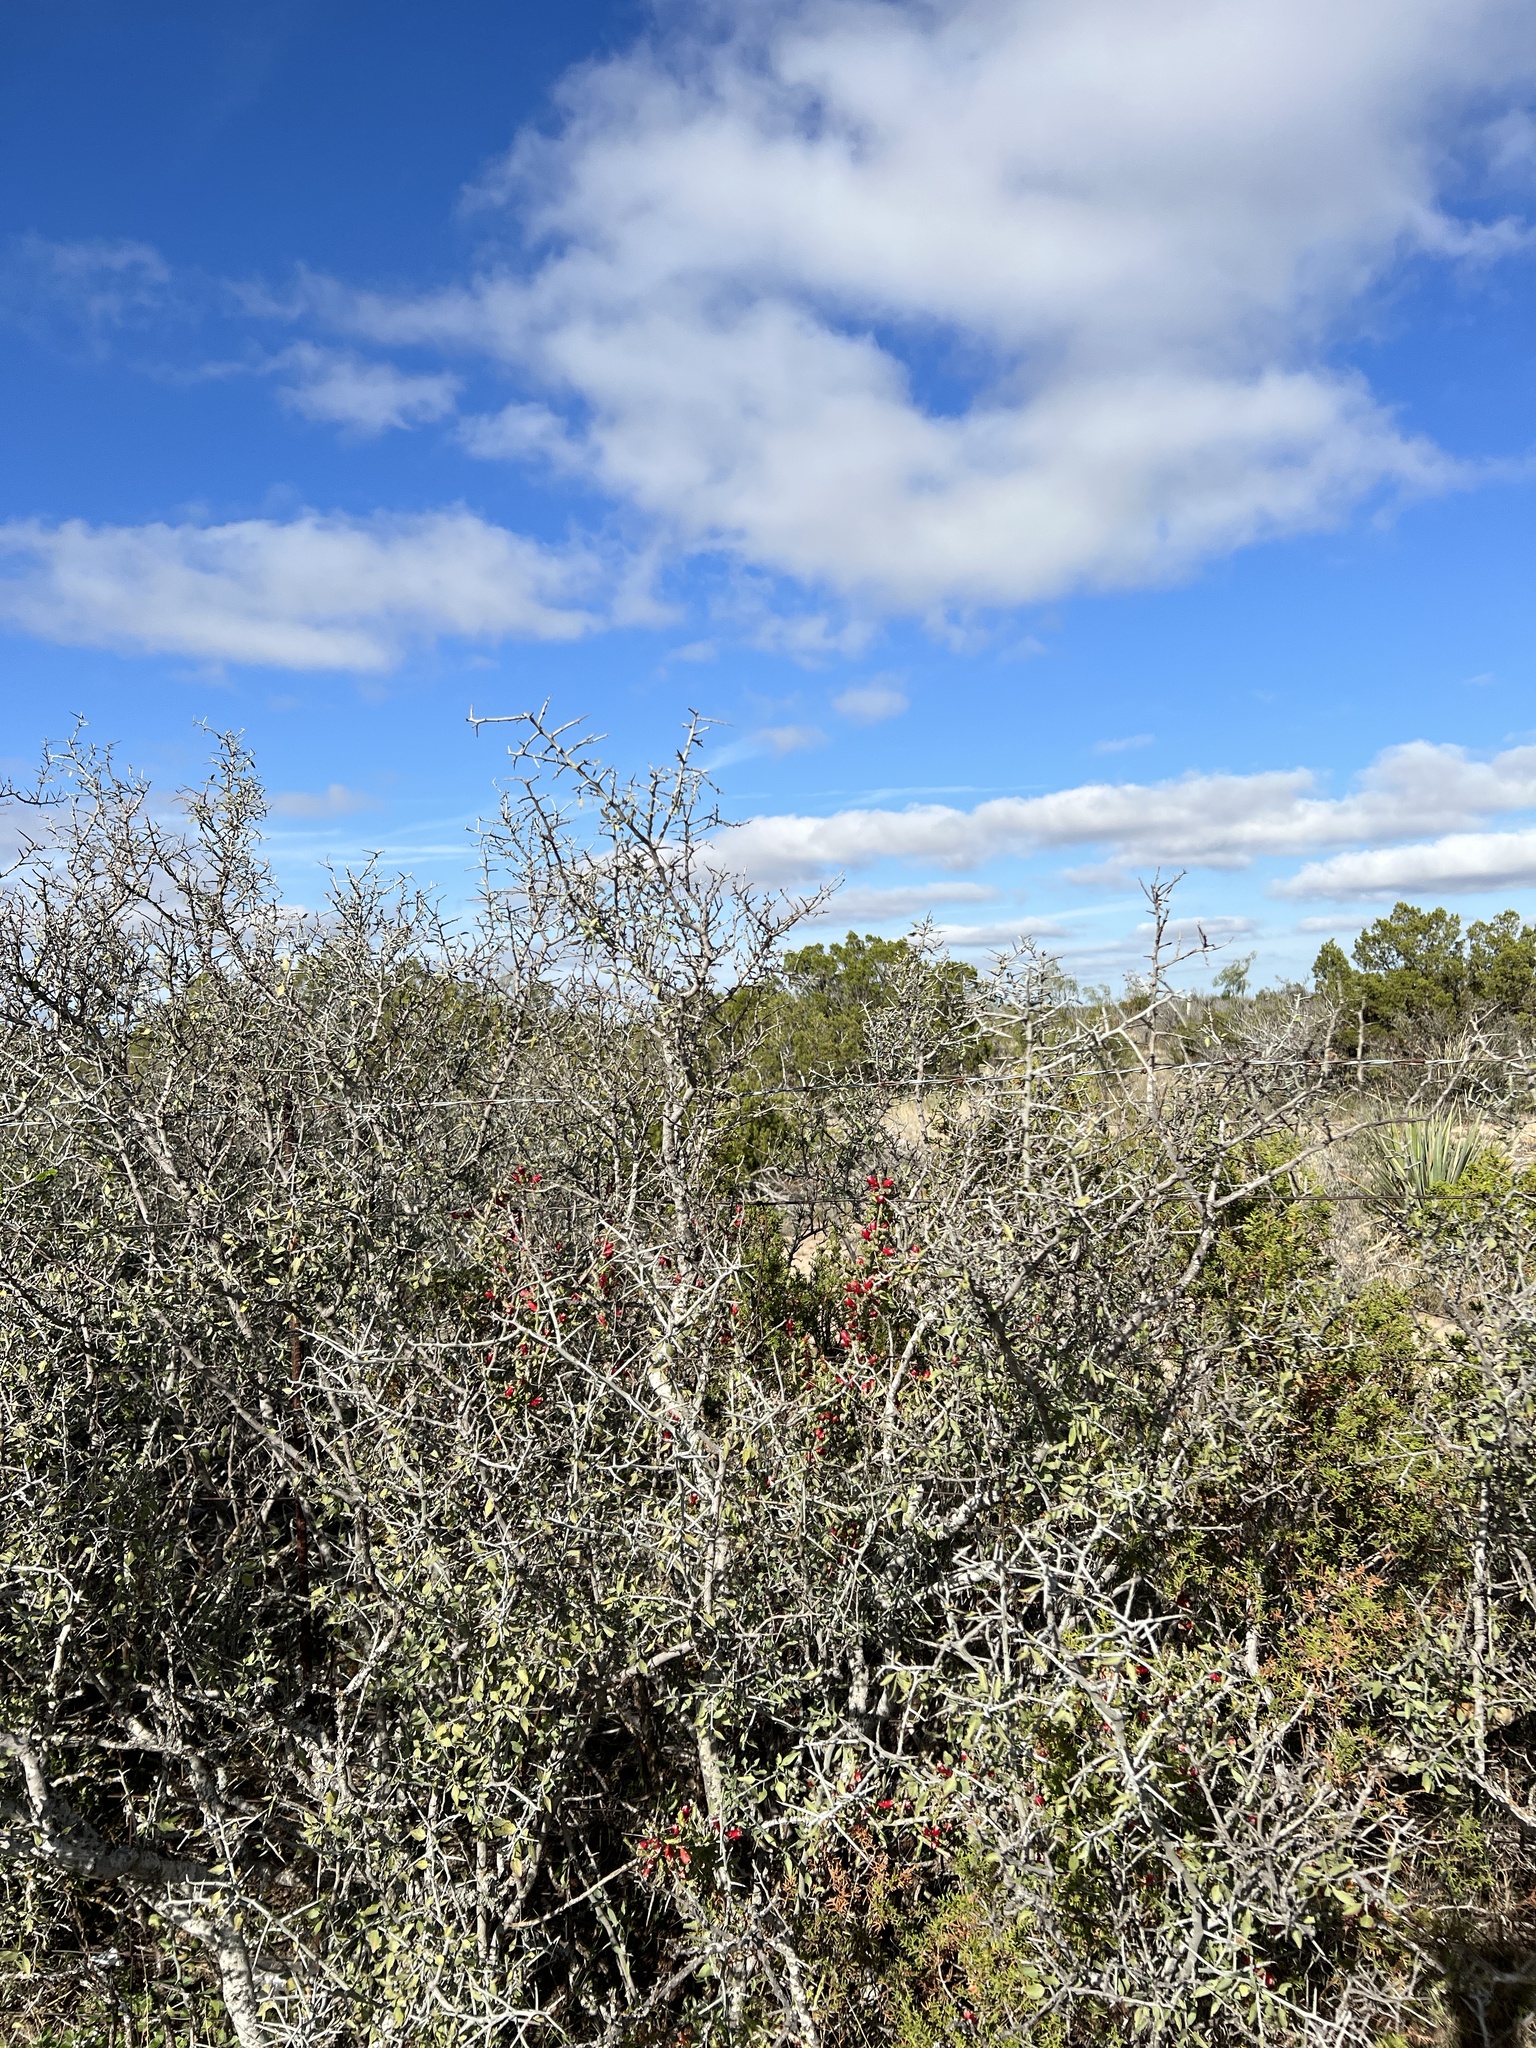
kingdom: Plantae
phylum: Tracheophyta
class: Magnoliopsida
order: Rosales
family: Rhamnaceae
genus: Sarcomphalus
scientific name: Sarcomphalus obtusifolius
